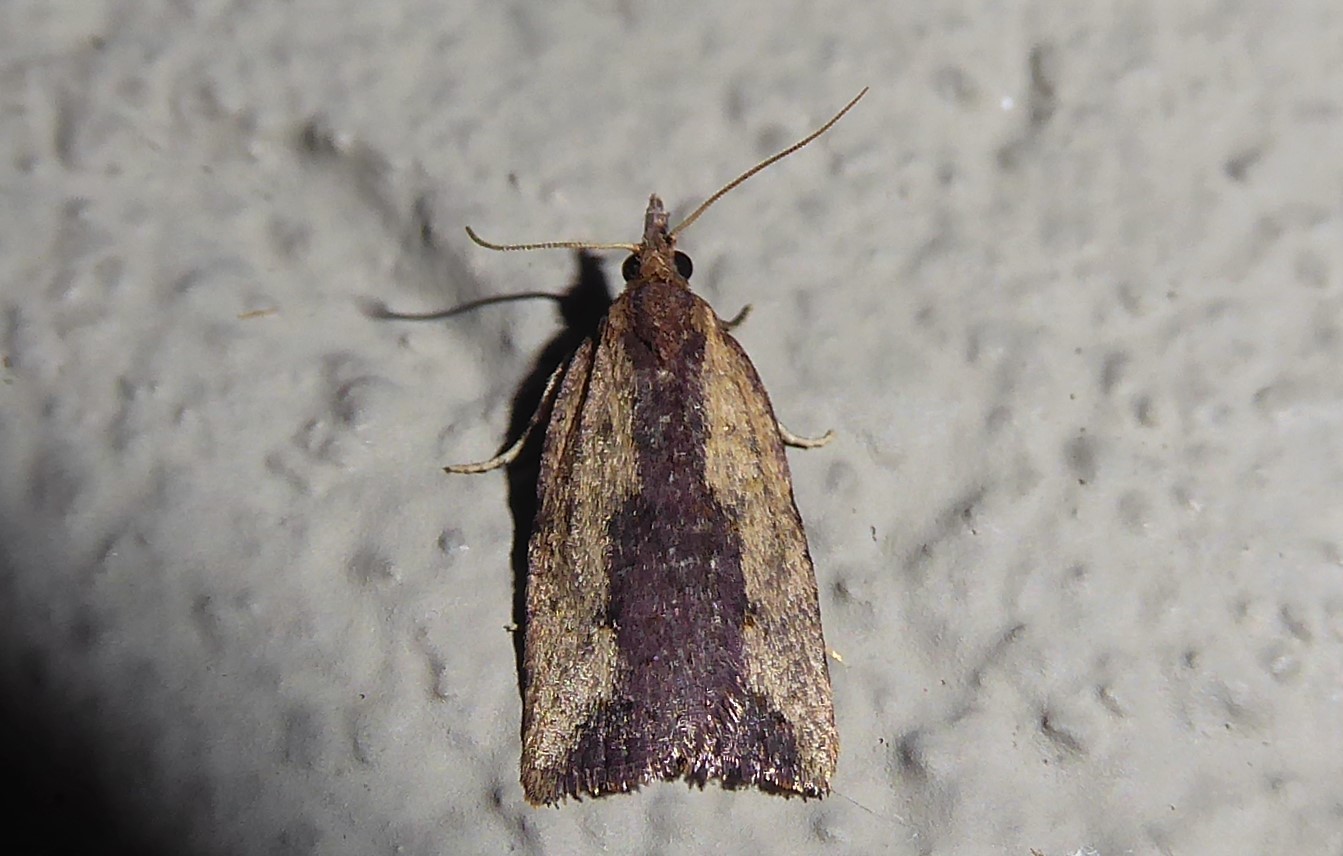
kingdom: Animalia
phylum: Arthropoda
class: Insecta
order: Lepidoptera
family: Tortricidae
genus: Planotortrix
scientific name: Planotortrix notophaea
